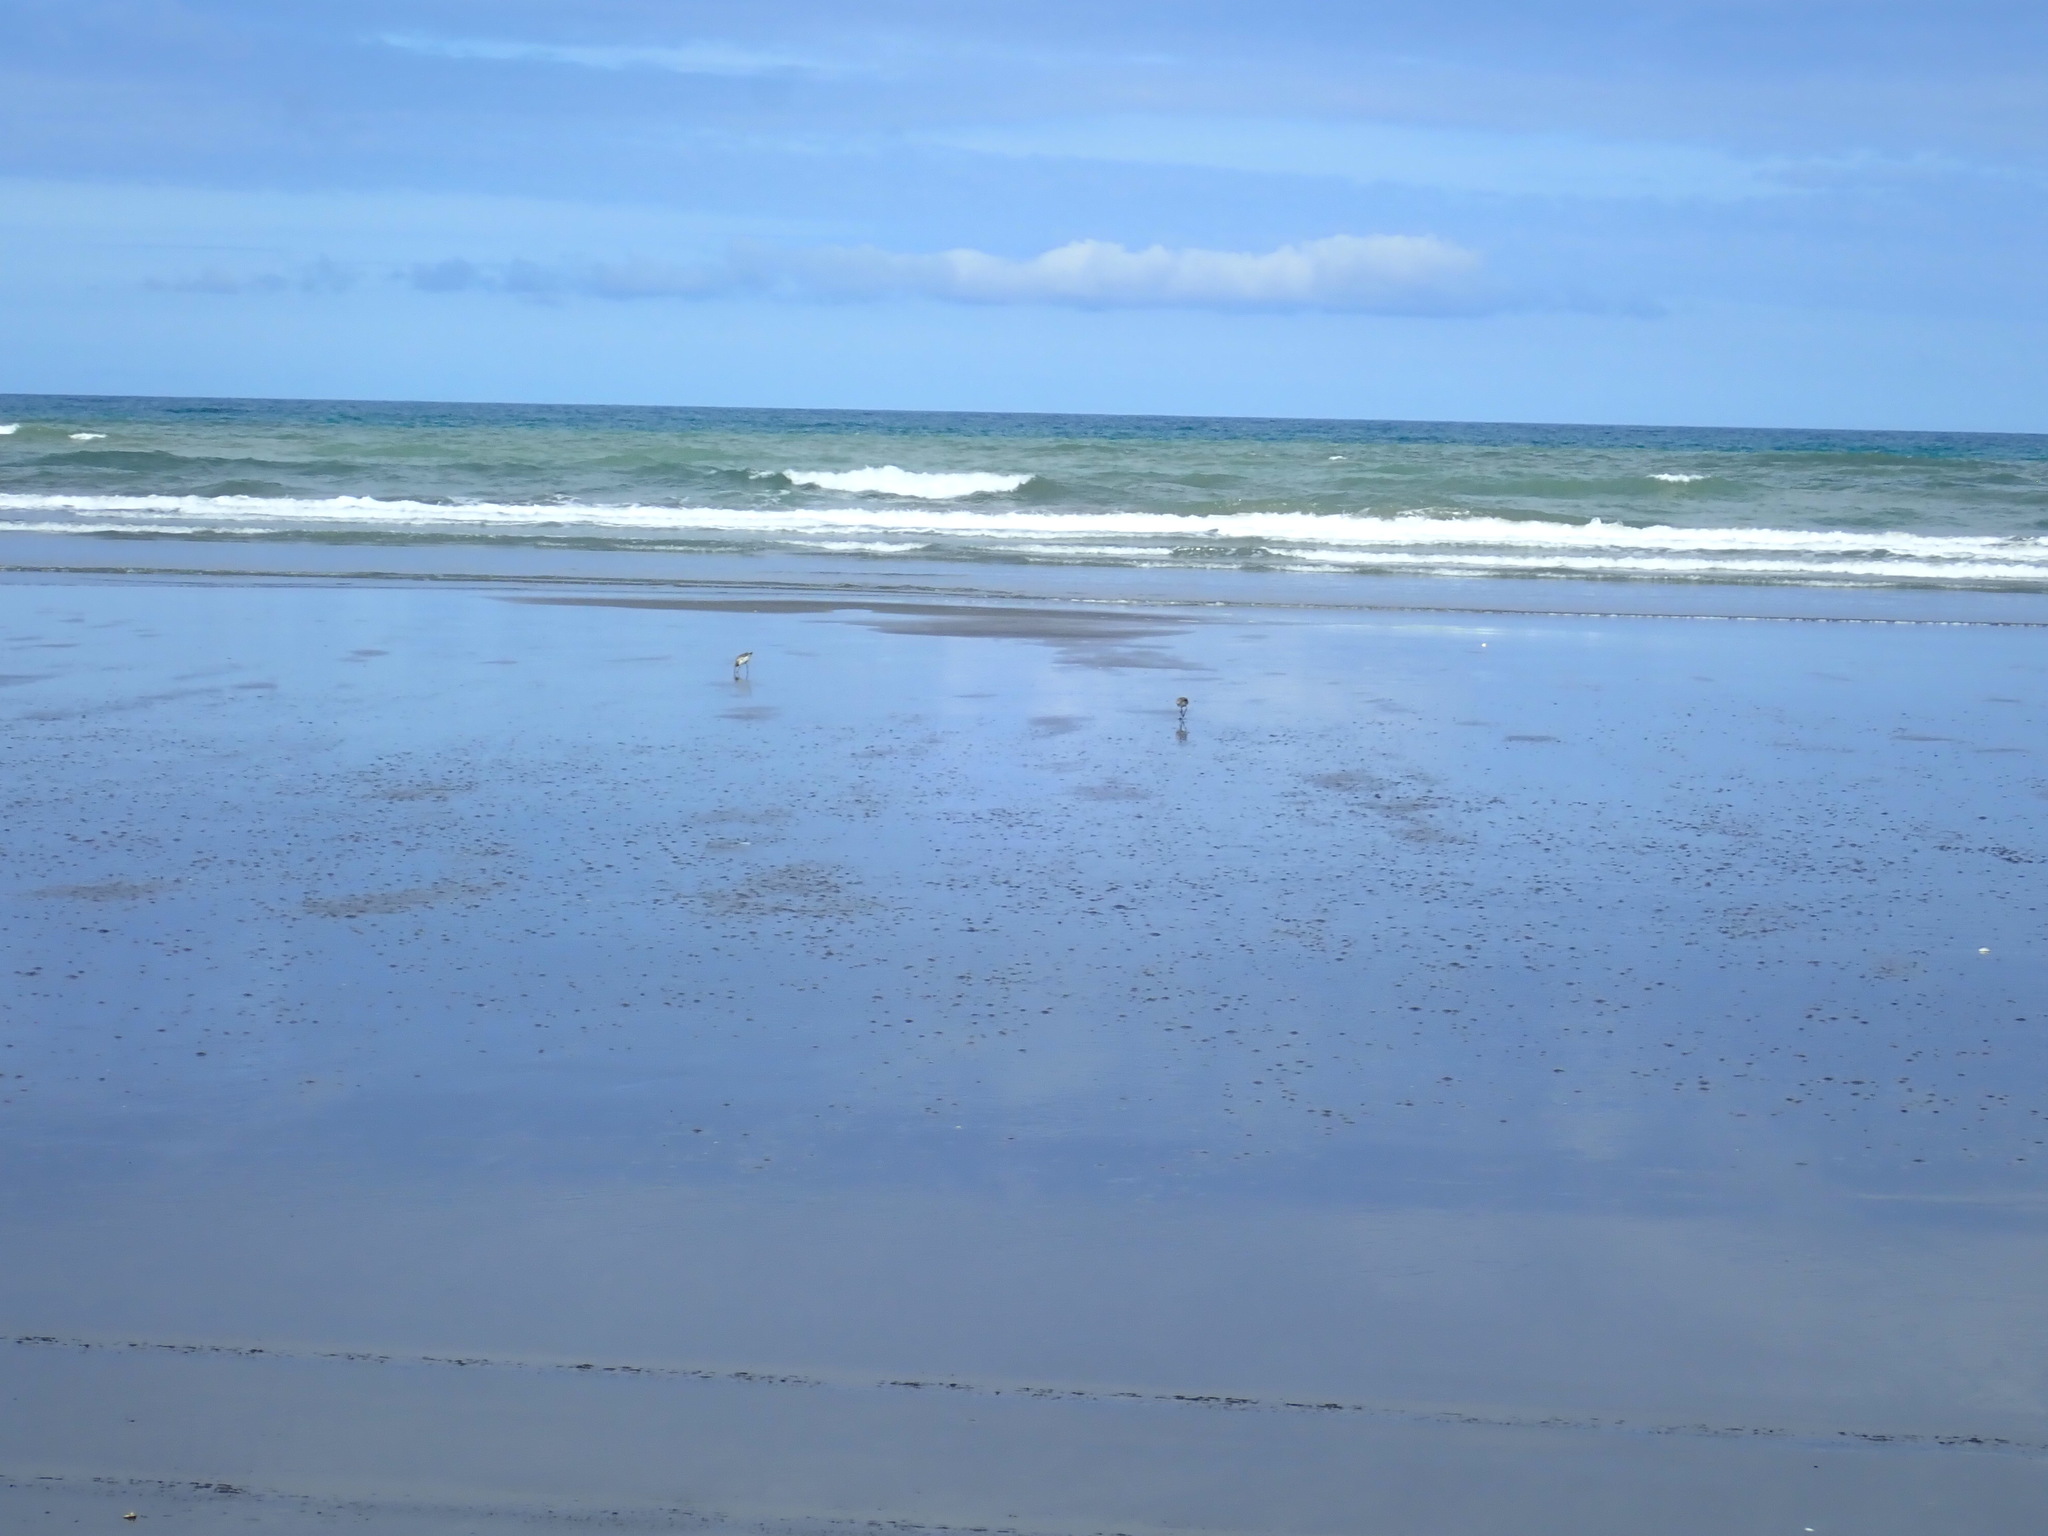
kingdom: Animalia
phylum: Chordata
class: Aves
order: Charadriiformes
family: Scolopacidae
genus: Limosa
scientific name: Limosa lapponica
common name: Bar-tailed godwit
